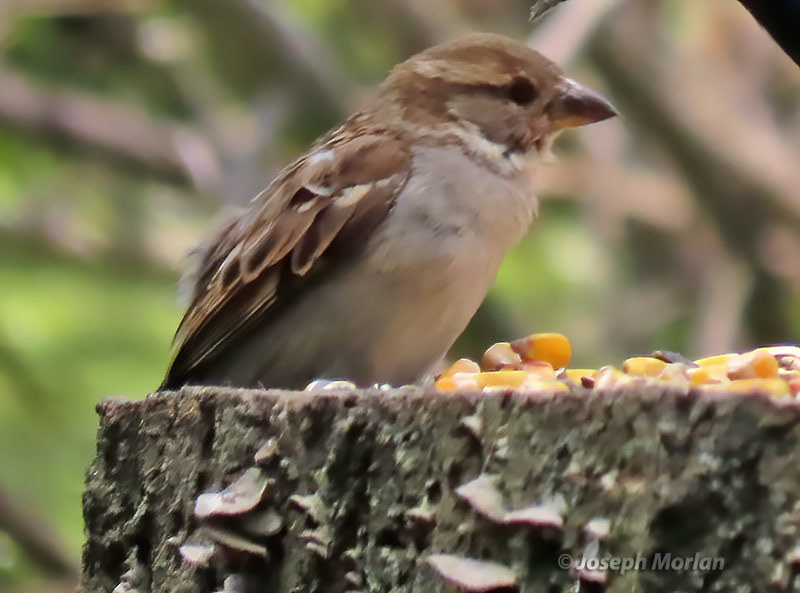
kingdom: Animalia
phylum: Chordata
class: Aves
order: Passeriformes
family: Passeridae
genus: Passer
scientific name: Passer domesticus
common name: House sparrow
